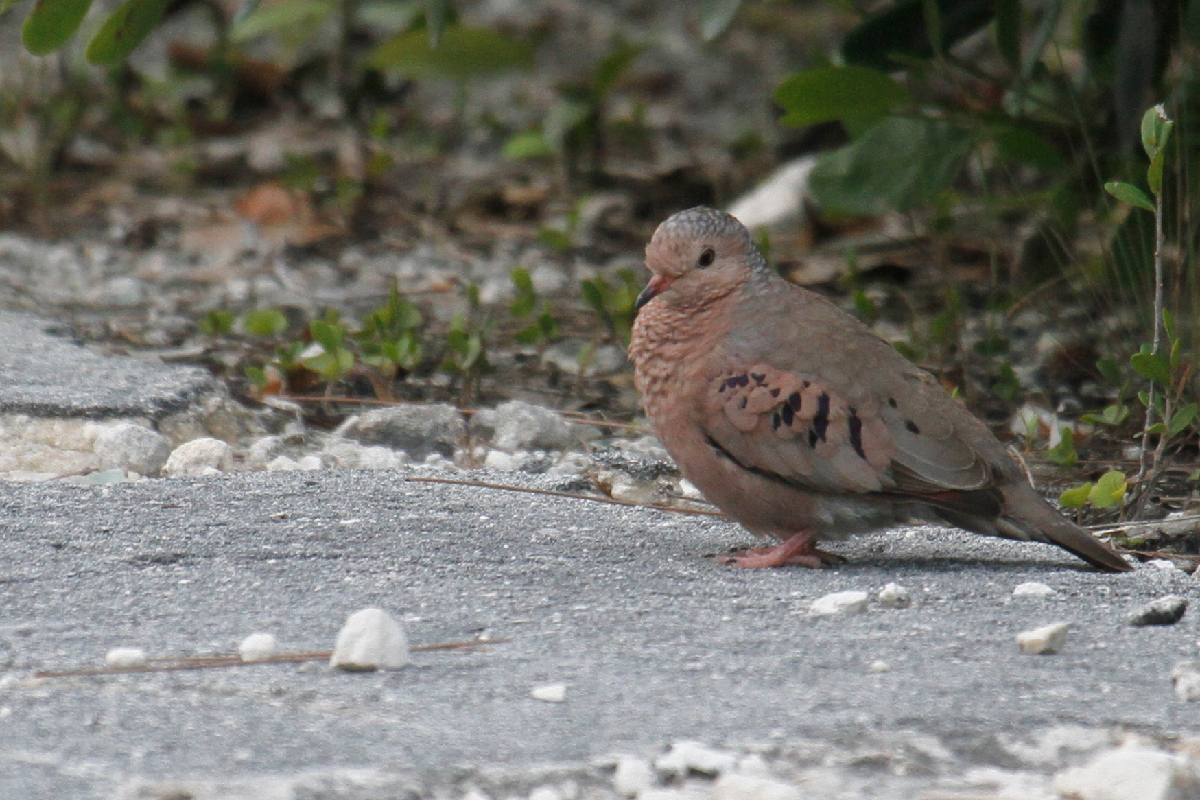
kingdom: Animalia
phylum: Chordata
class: Aves
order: Columbiformes
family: Columbidae
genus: Columbina
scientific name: Columbina passerina
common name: Common ground-dove
